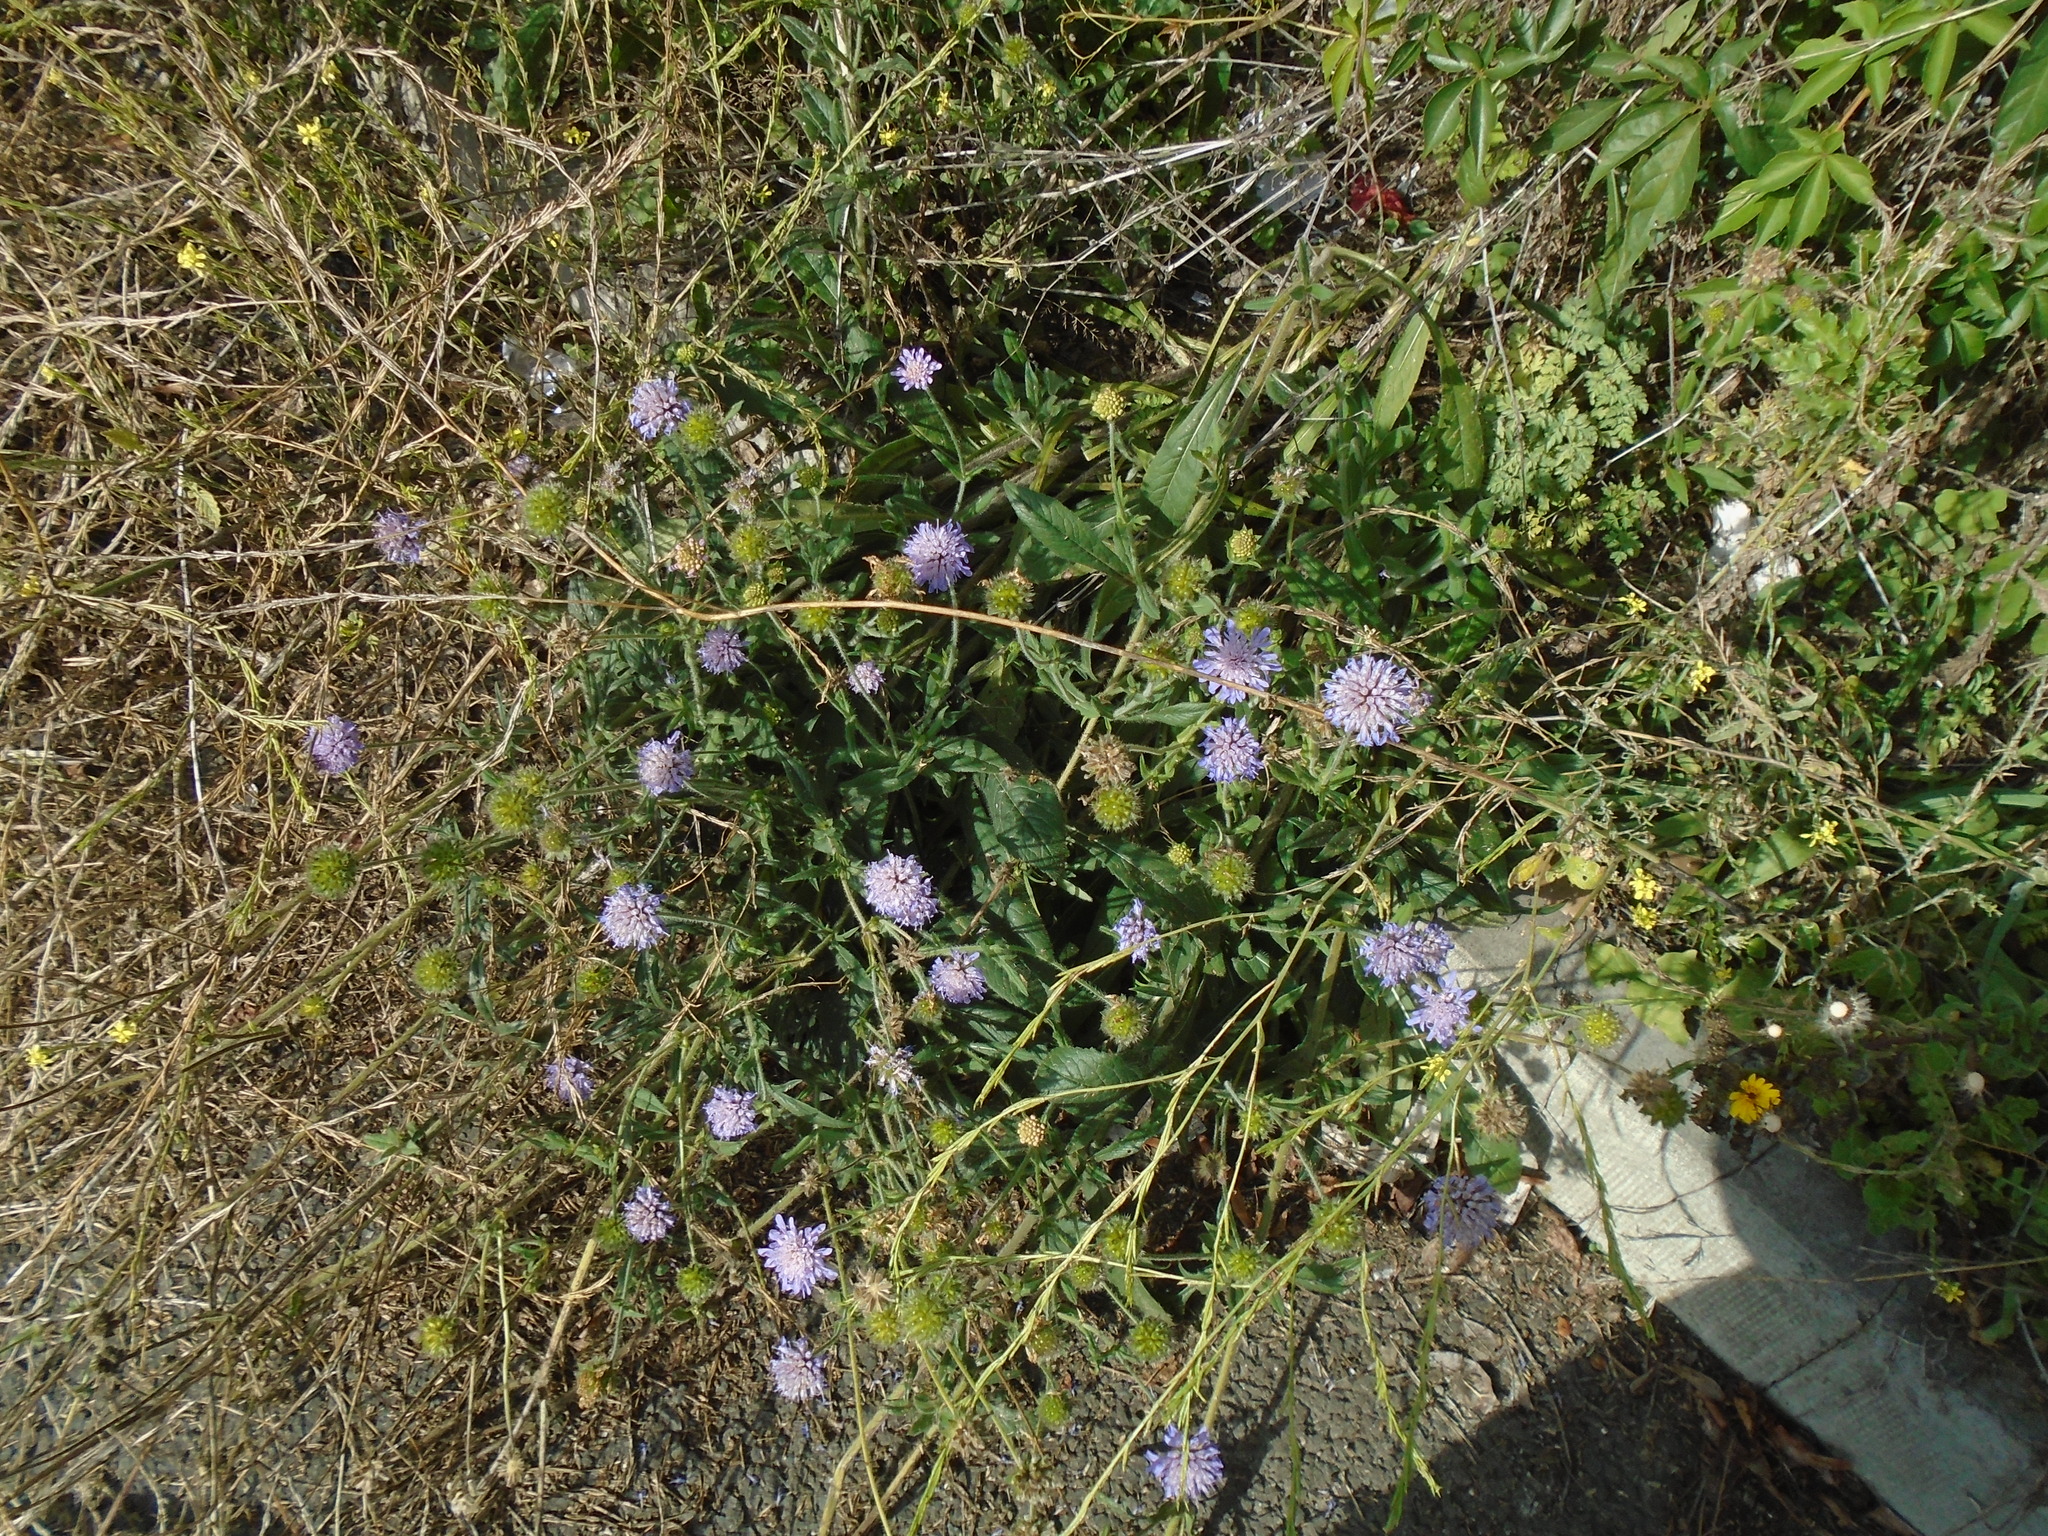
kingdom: Plantae
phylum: Tracheophyta
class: Magnoliopsida
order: Dipsacales
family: Caprifoliaceae
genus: Knautia
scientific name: Knautia arvensis
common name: Field scabiosa
